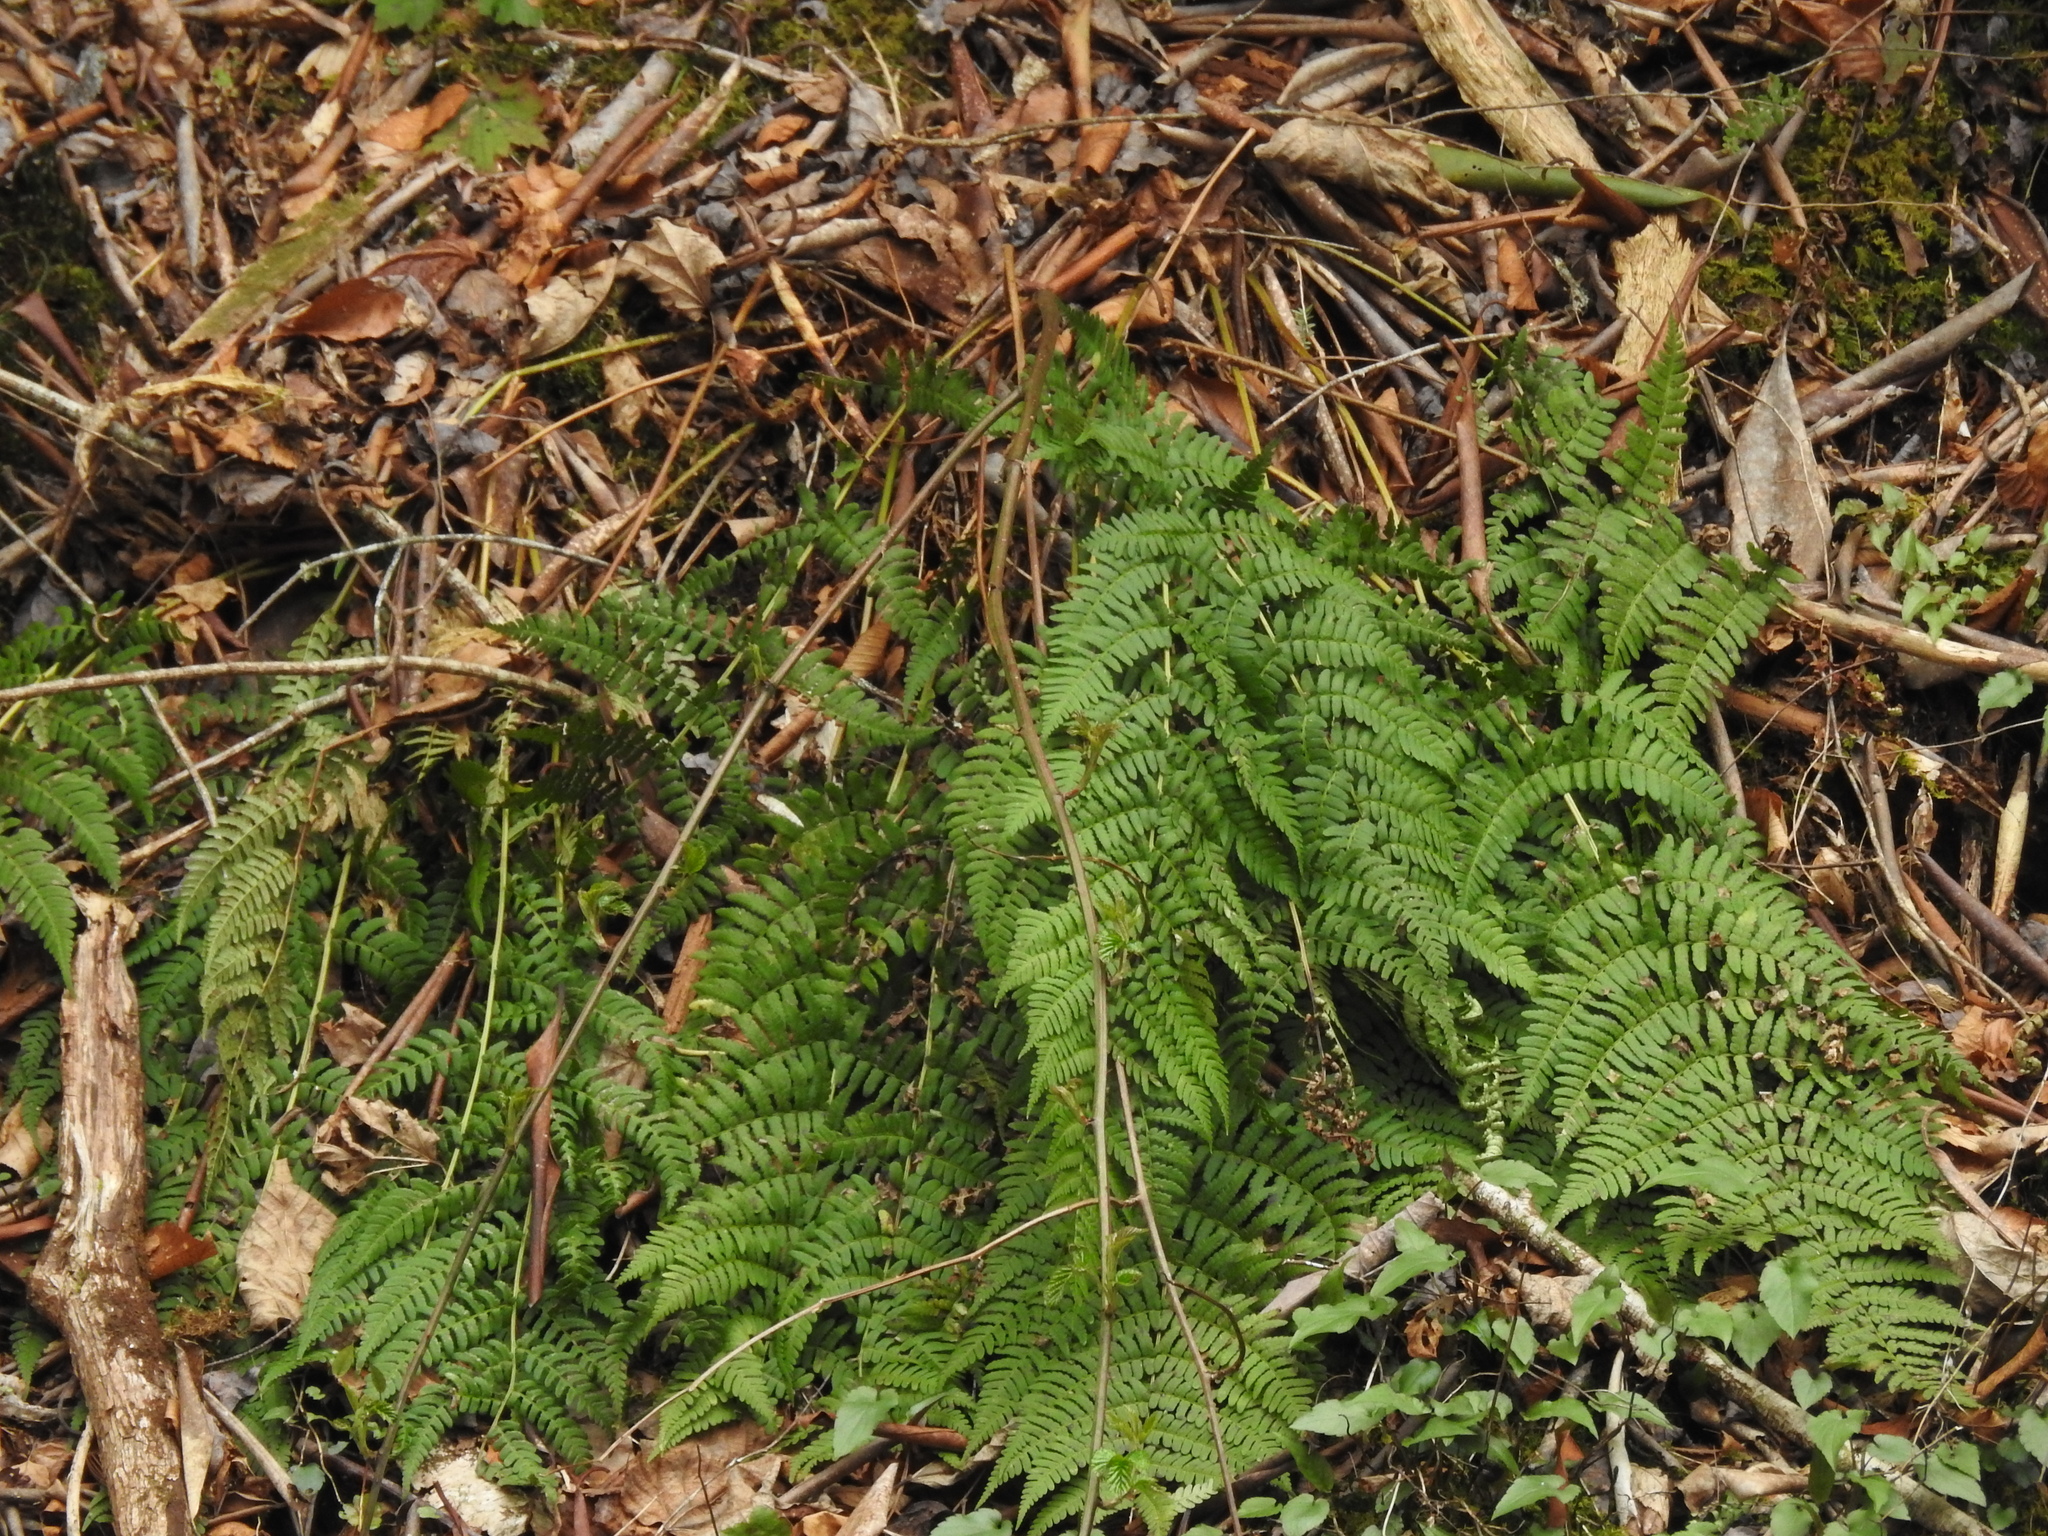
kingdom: Plantae
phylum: Tracheophyta
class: Polypodiopsida
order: Polypodiales
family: Dryopteridaceae
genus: Dryopteris
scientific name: Dryopteris marginalis
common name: Marginal wood fern
